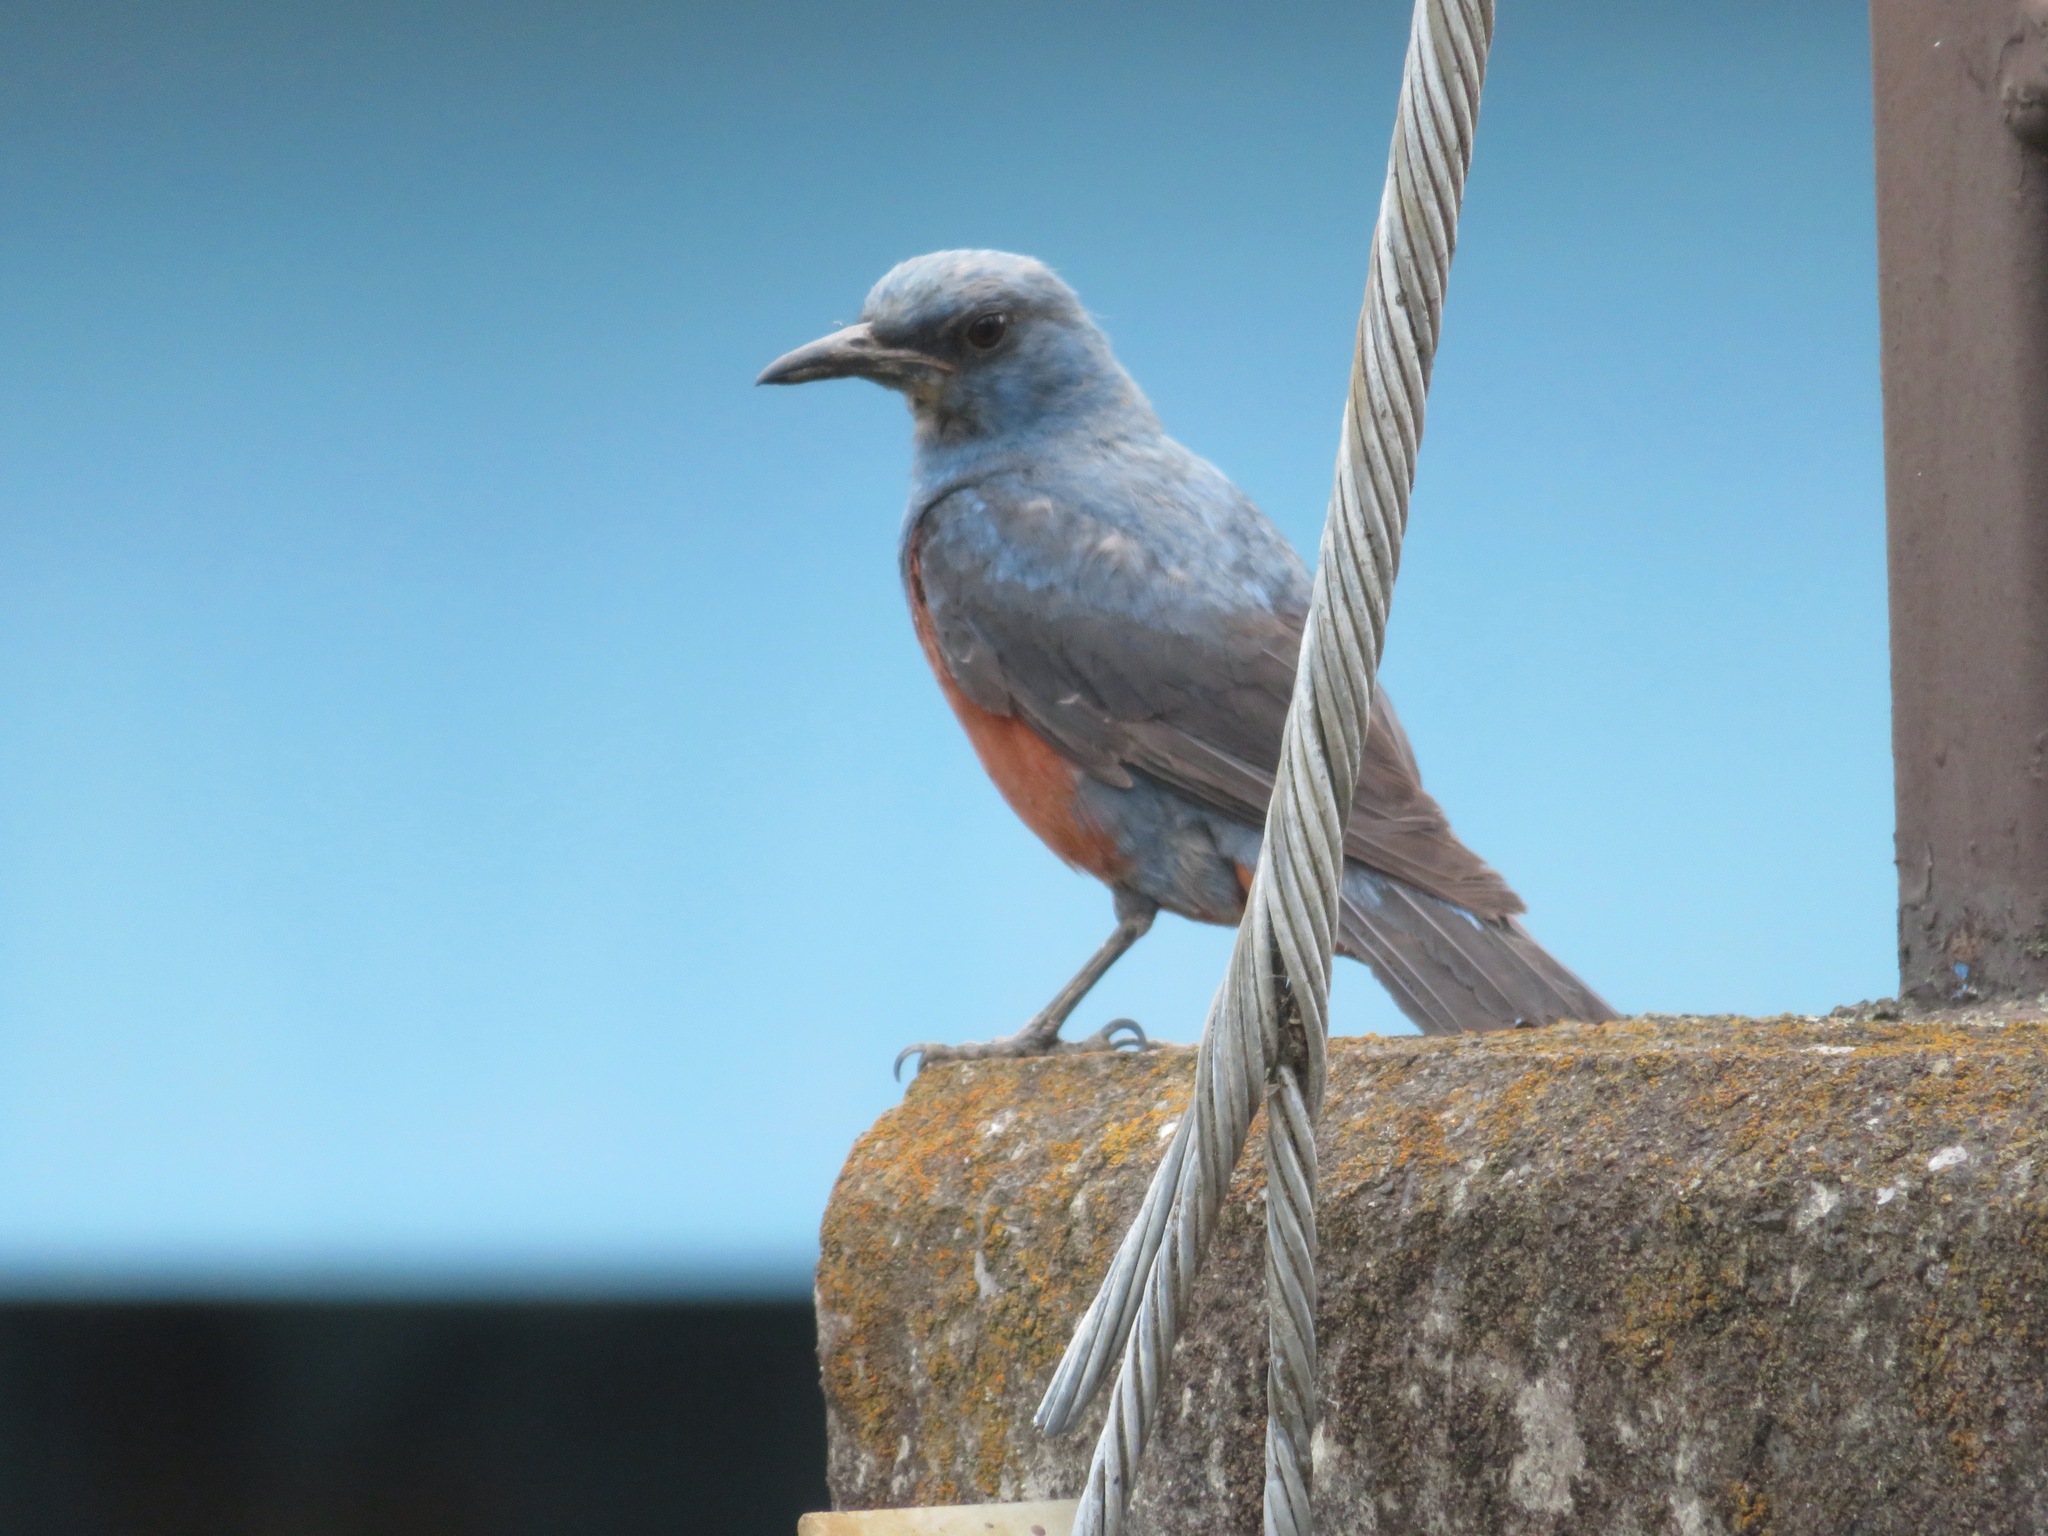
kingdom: Animalia
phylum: Chordata
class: Aves
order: Passeriformes
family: Muscicapidae
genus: Monticola
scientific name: Monticola solitarius
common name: Blue rock thrush
